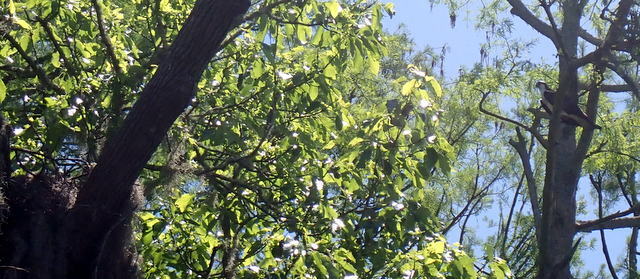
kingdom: Animalia
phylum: Chordata
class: Aves
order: Accipitriformes
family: Pandionidae
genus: Pandion
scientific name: Pandion haliaetus
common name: Osprey
